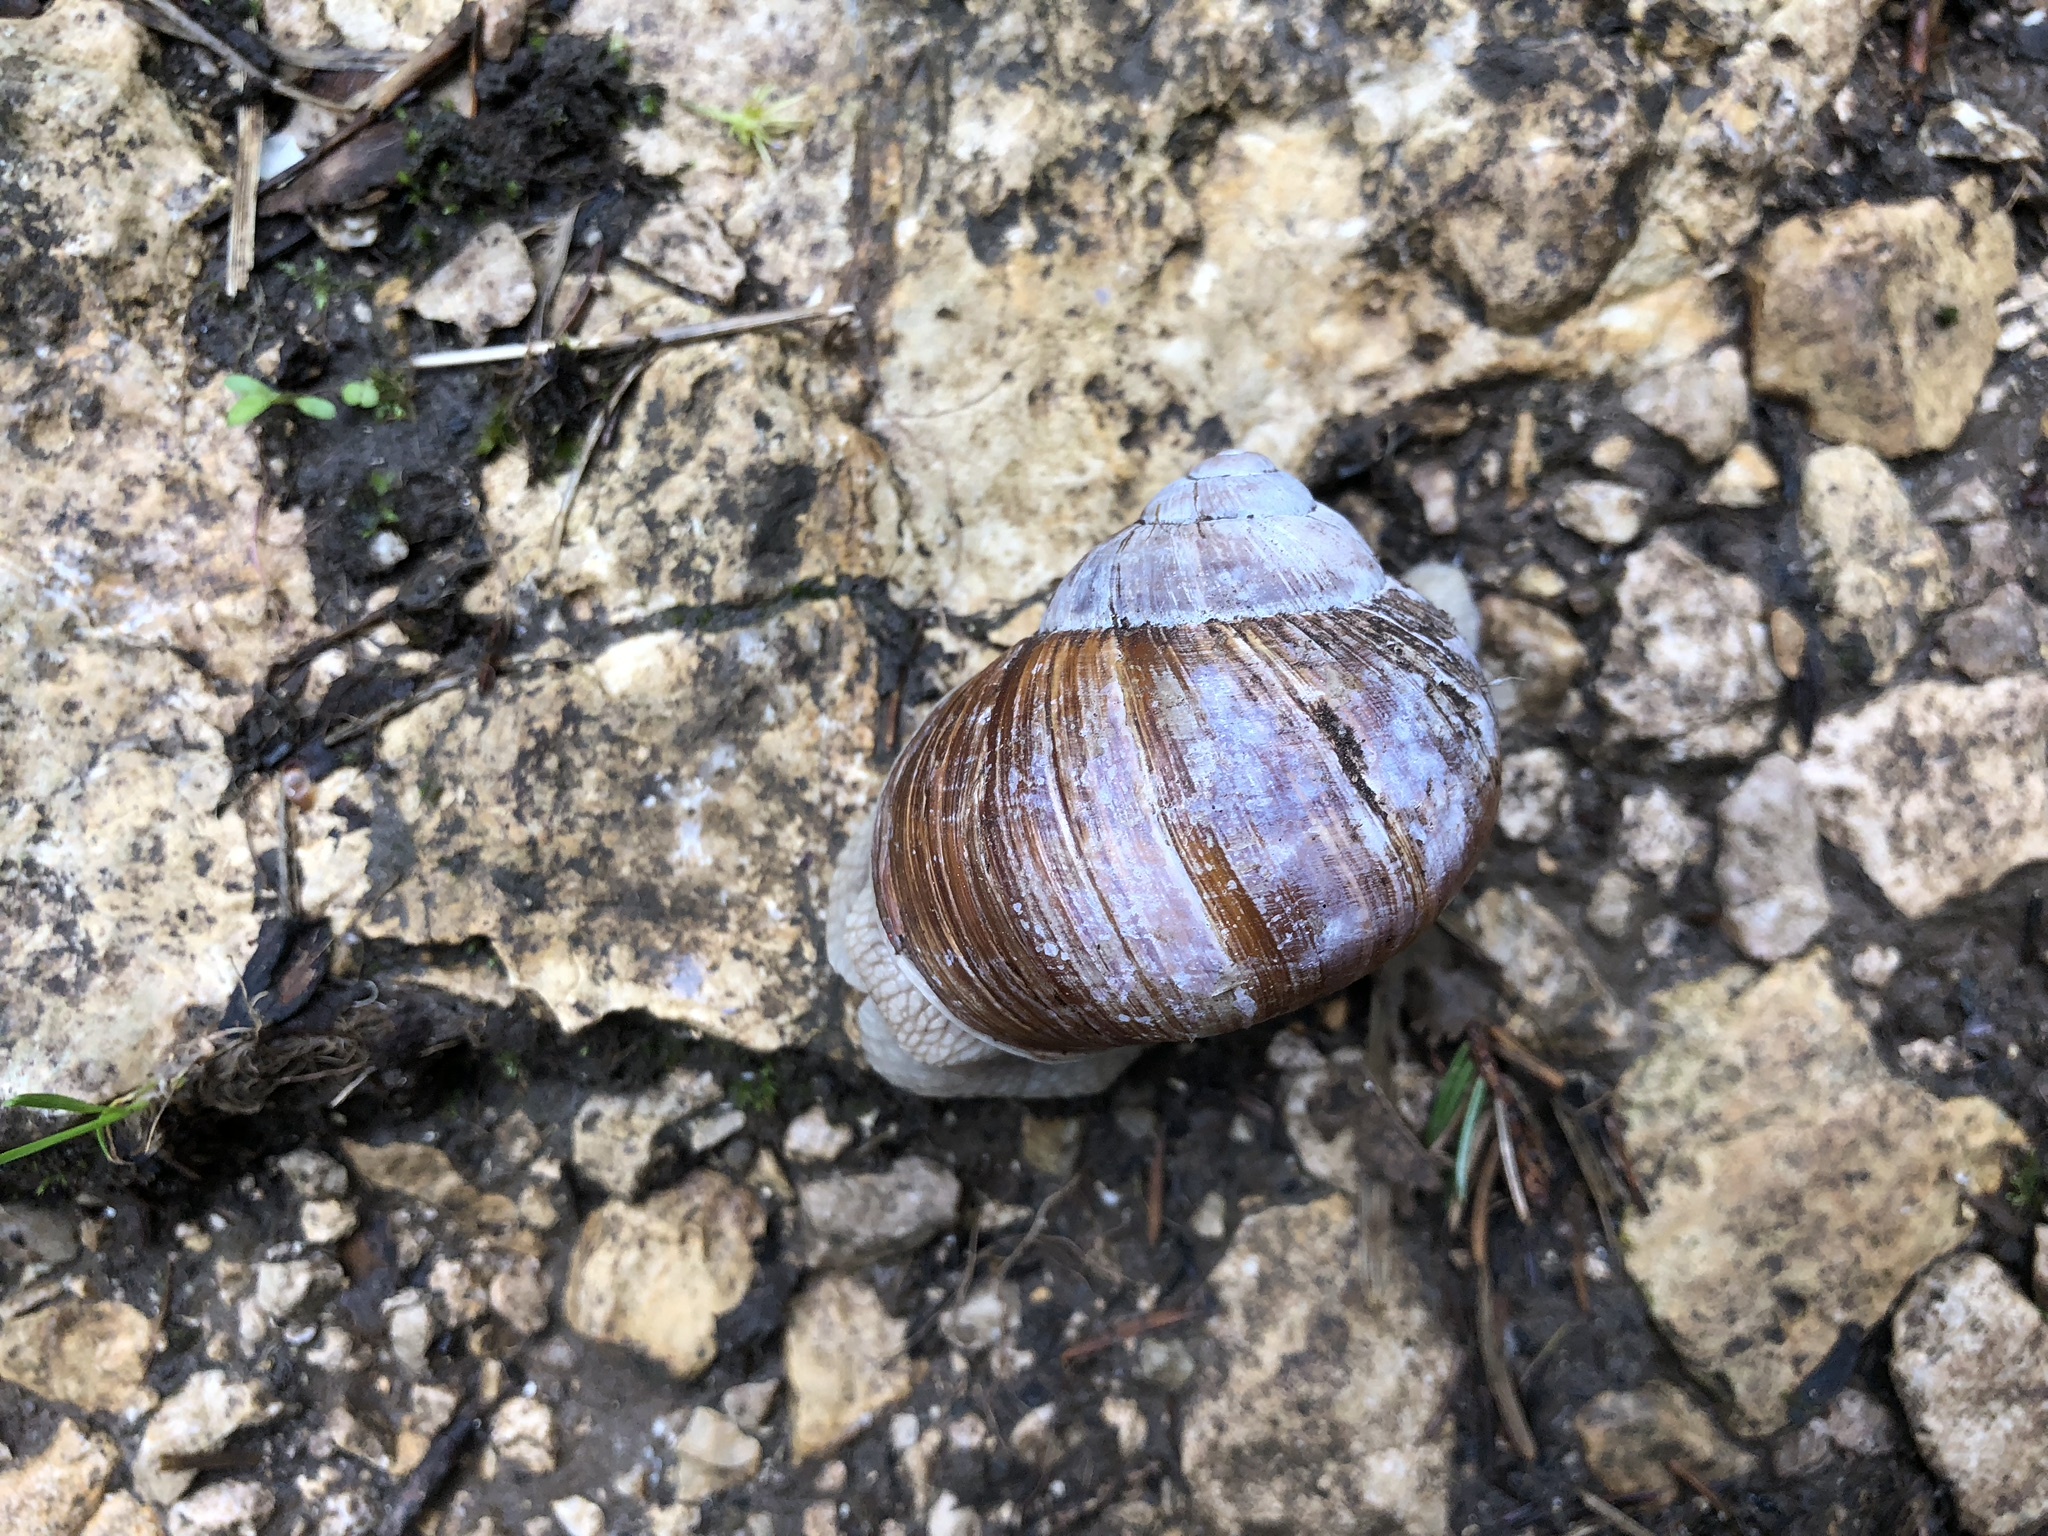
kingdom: Animalia
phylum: Mollusca
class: Gastropoda
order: Stylommatophora
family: Helicidae
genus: Helix
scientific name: Helix pomatia
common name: Roman snail
